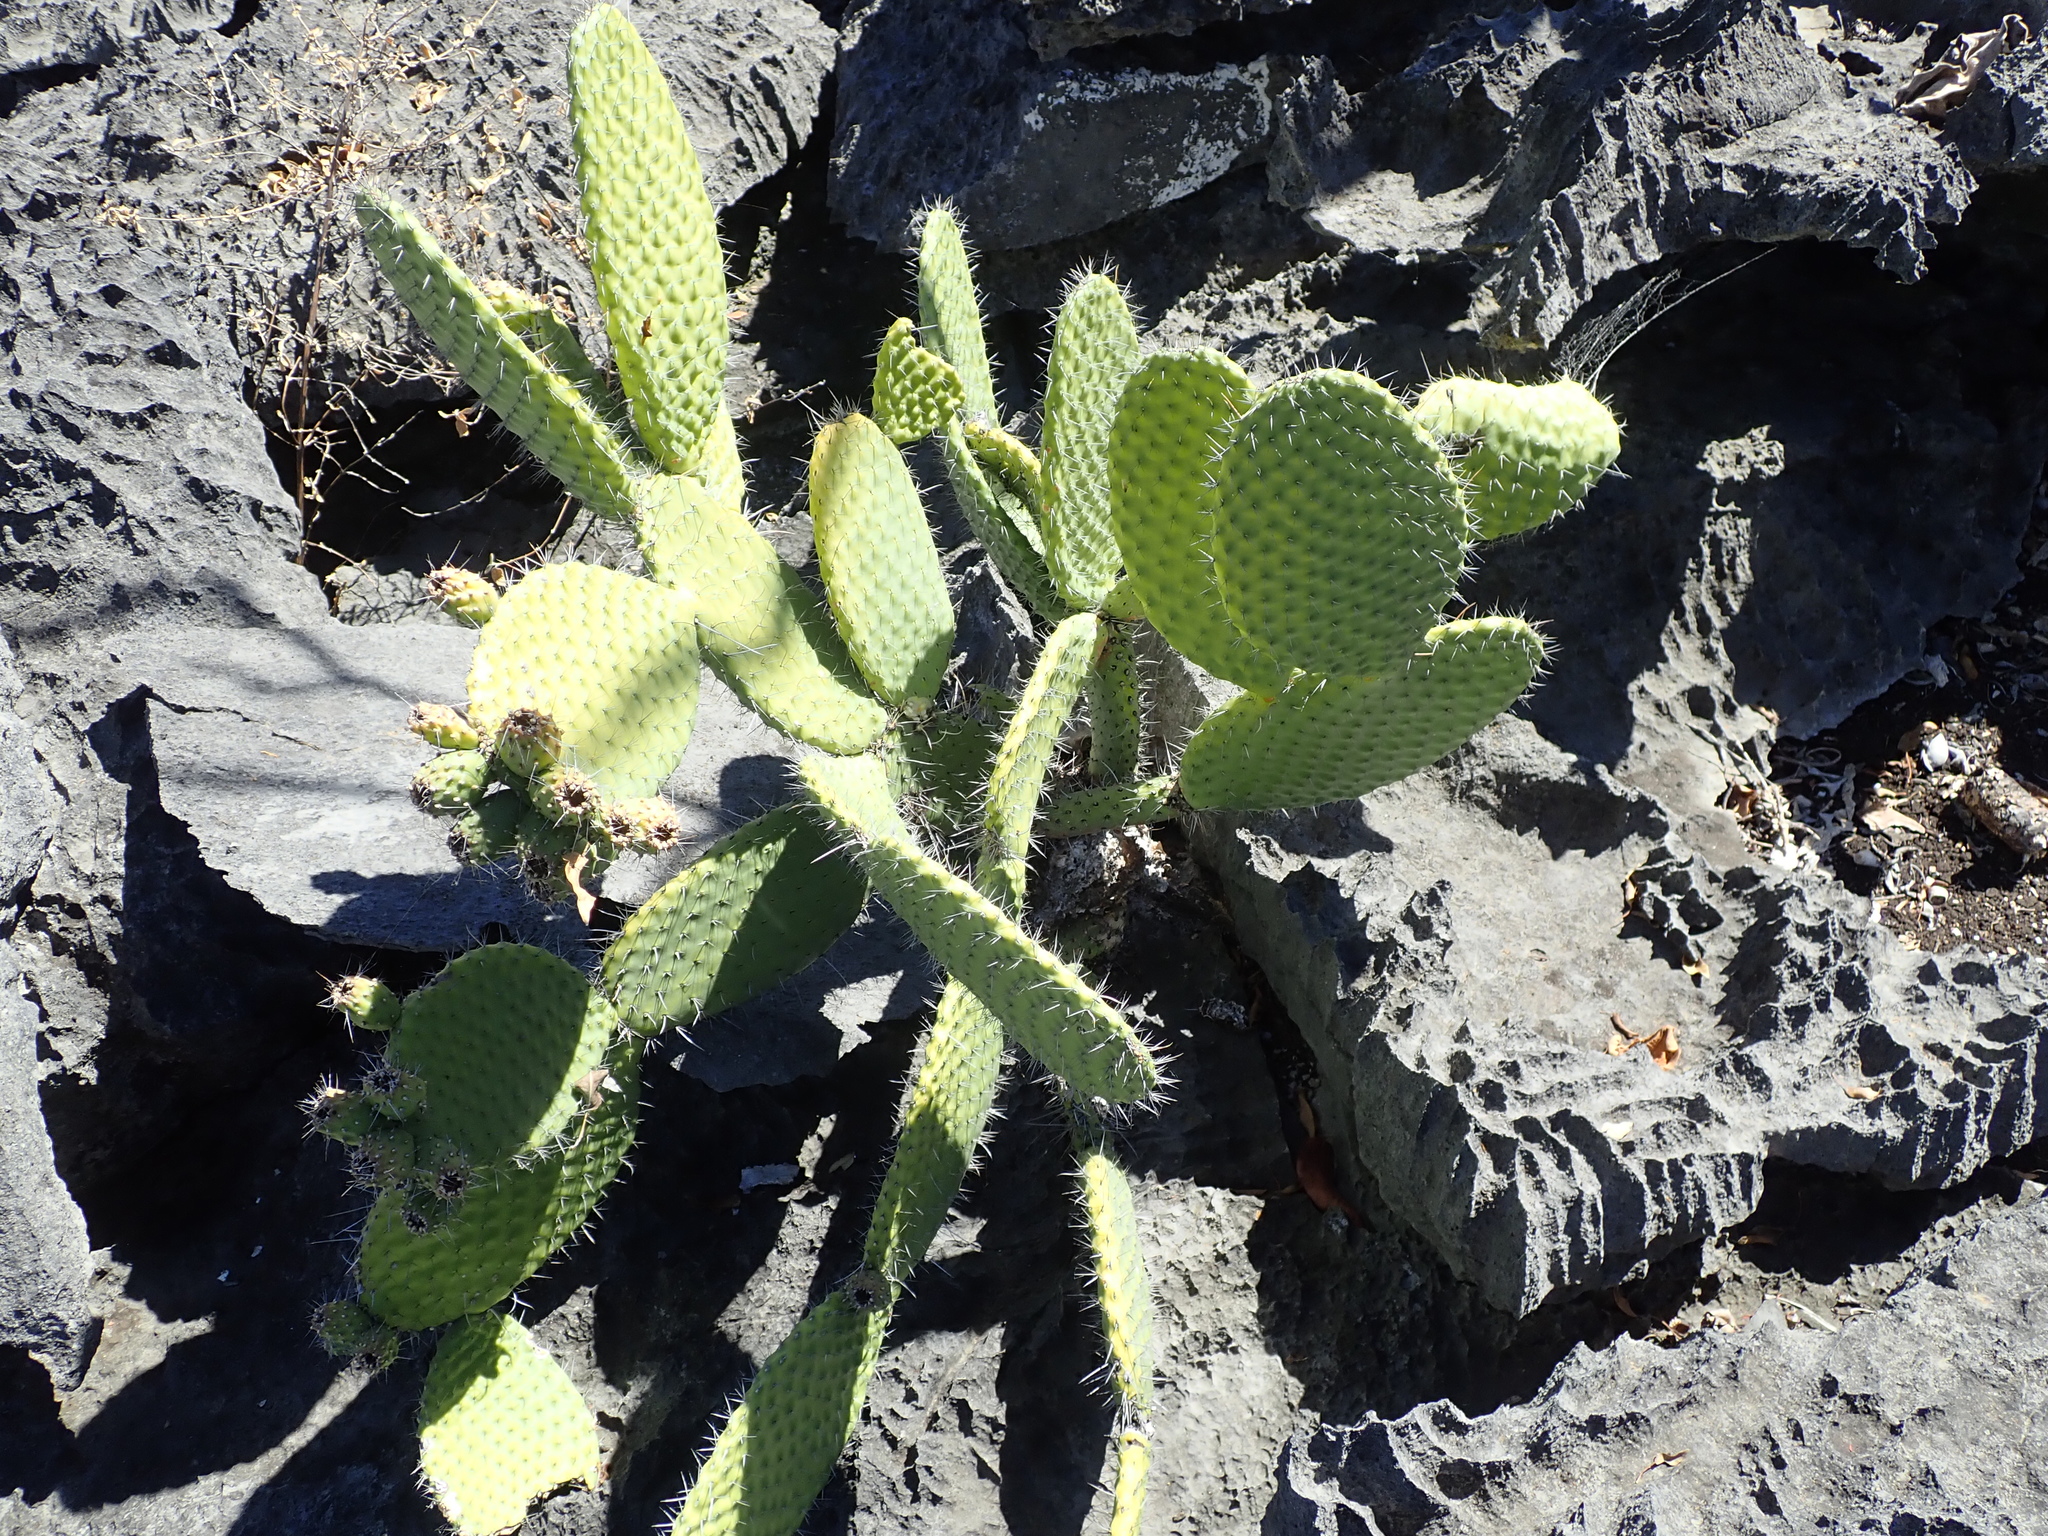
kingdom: Plantae
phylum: Tracheophyta
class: Magnoliopsida
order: Caryophyllales
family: Cactaceae
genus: Tacinga
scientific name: Tacinga saxatilis
